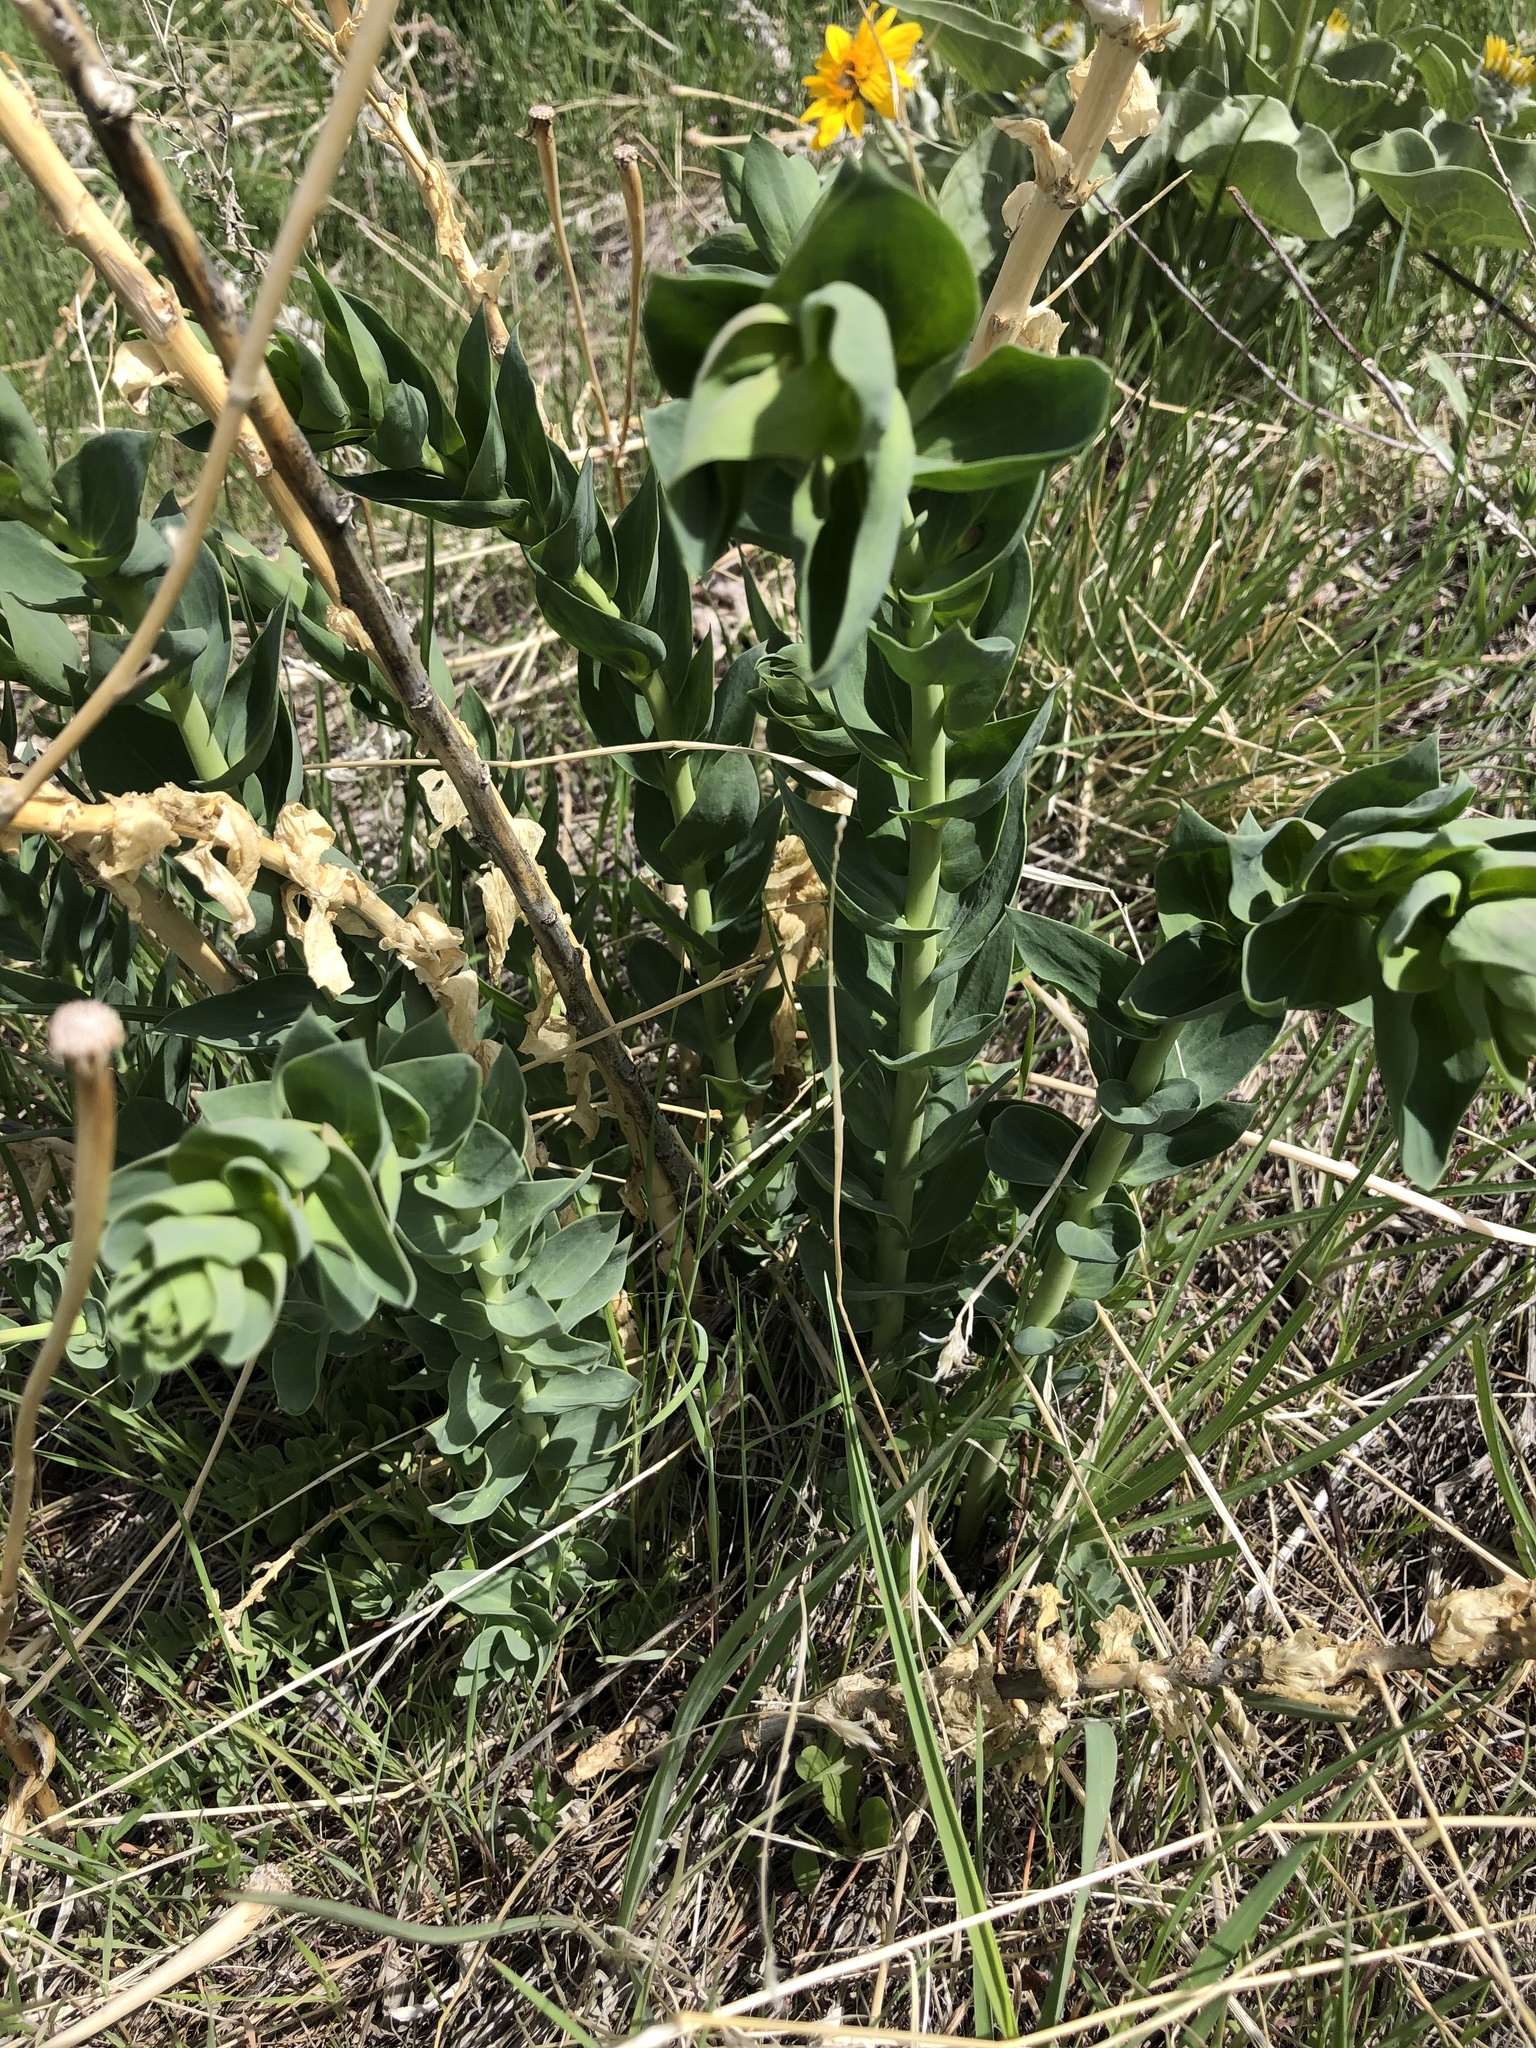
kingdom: Plantae
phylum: Tracheophyta
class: Magnoliopsida
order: Lamiales
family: Plantaginaceae
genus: Linaria
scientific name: Linaria dalmatica
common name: Dalmatian toadflax
